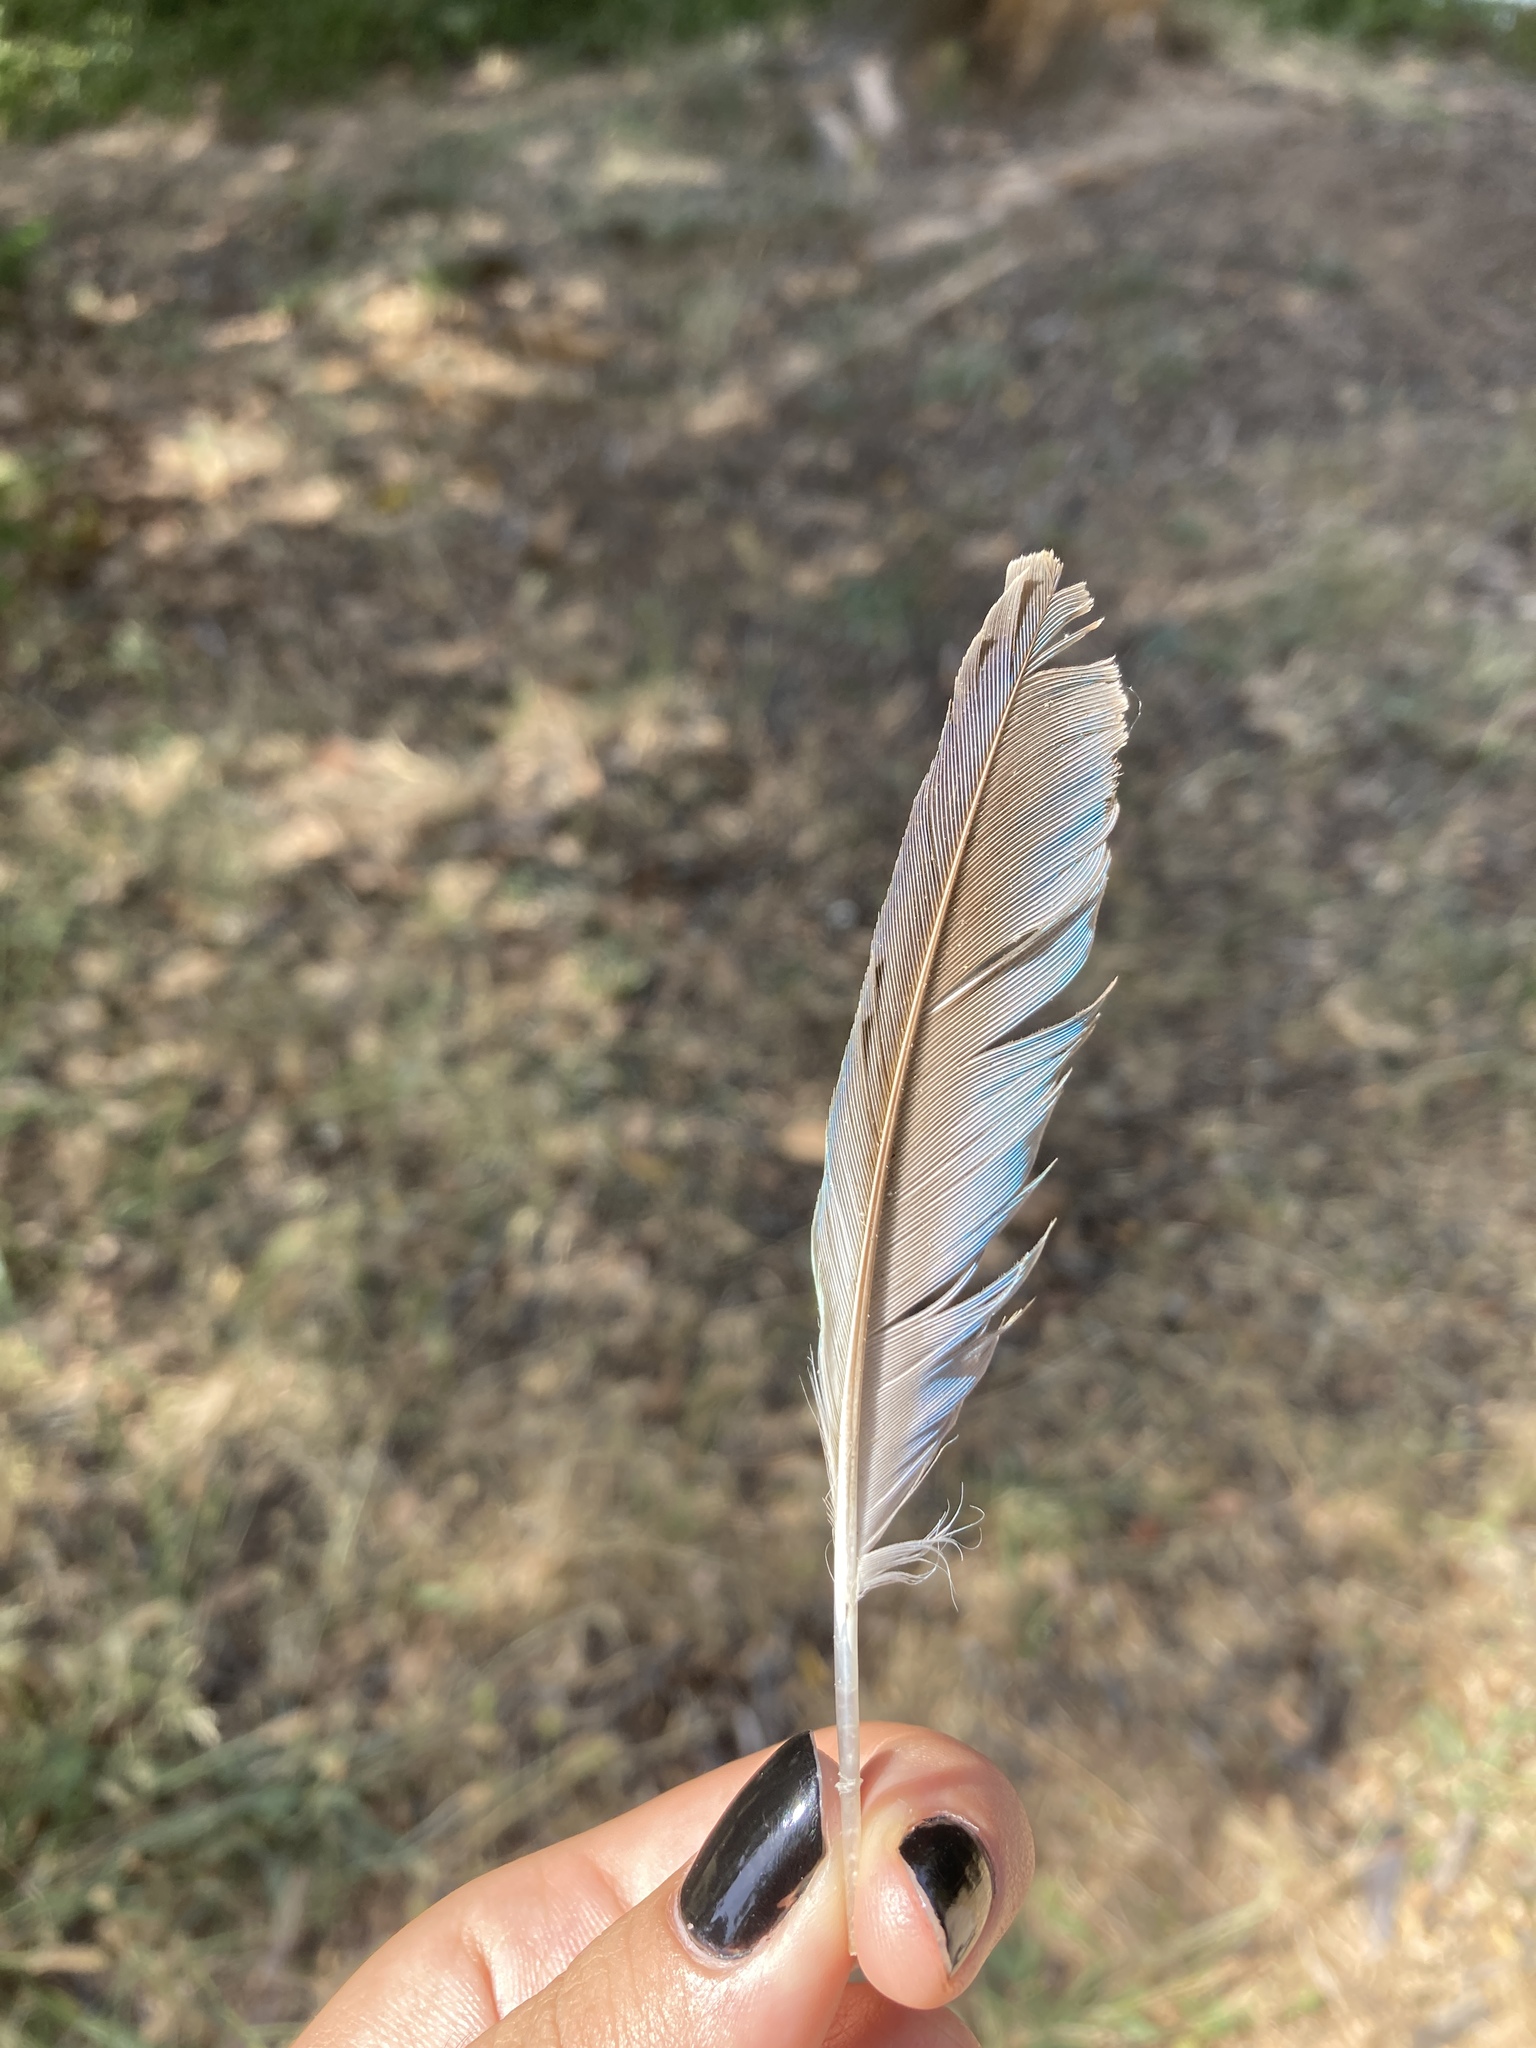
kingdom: Animalia
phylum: Chordata
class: Aves
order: Psittaciformes
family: Psittacidae
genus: Myiopsitta
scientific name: Myiopsitta monachus
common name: Monk parakeet
